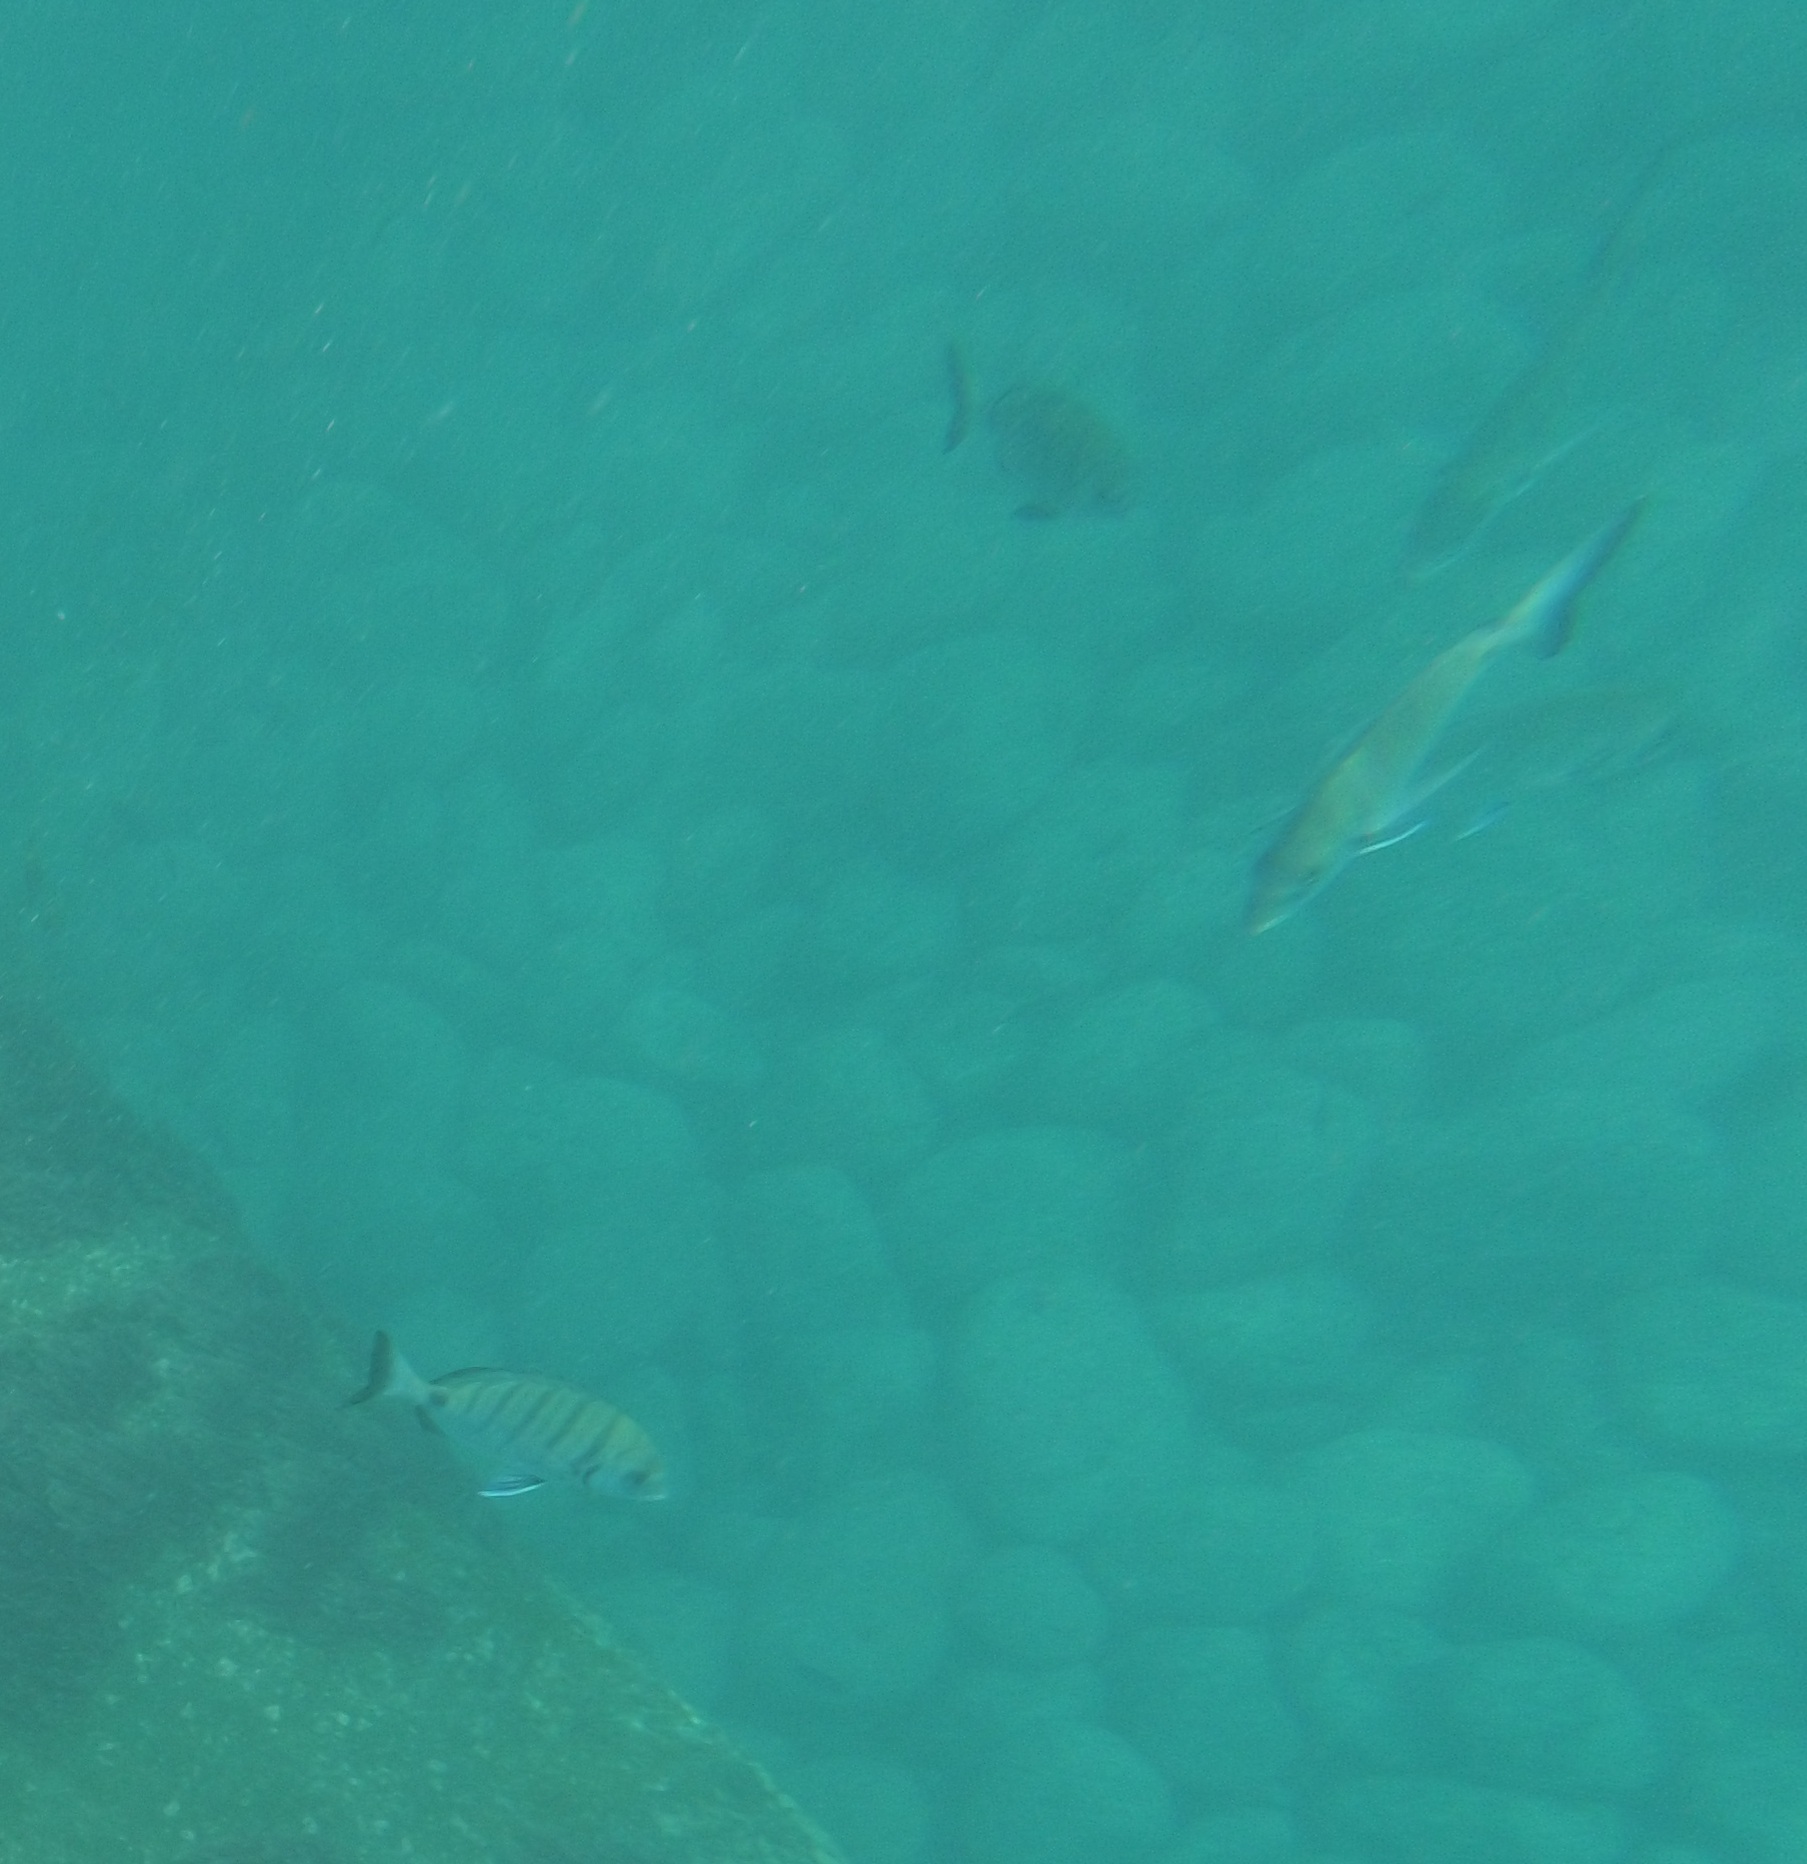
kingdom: Animalia
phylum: Chordata
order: Perciformes
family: Sparidae
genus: Diplodus
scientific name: Diplodus cadenati
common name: Moroccan white seabream
